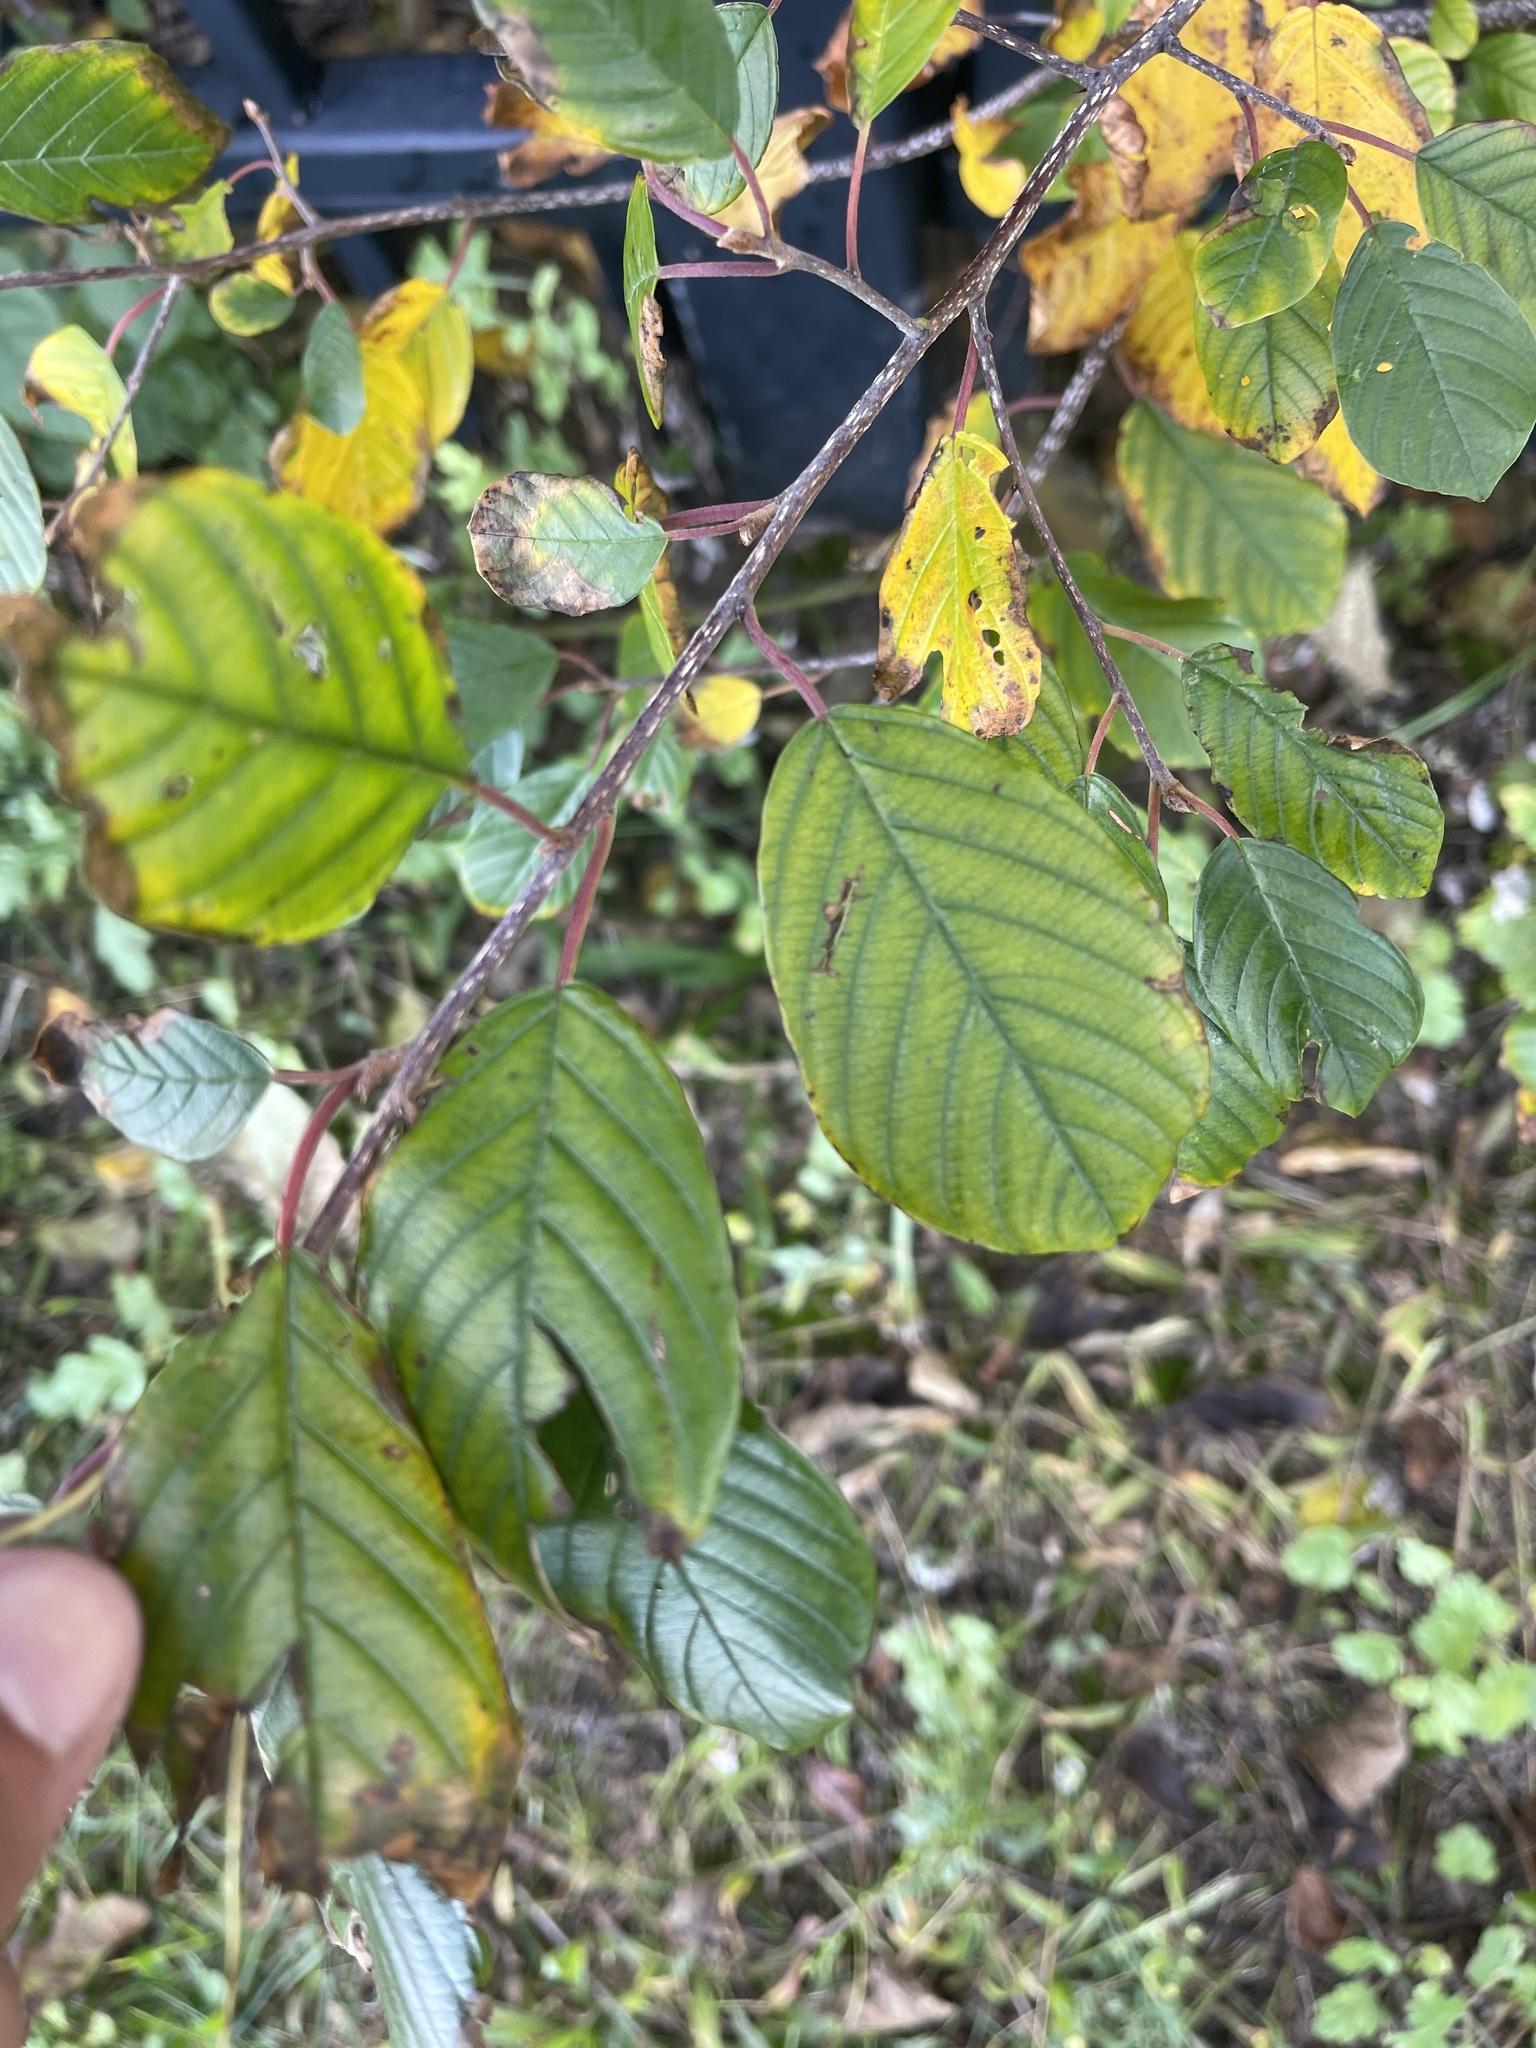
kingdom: Plantae
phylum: Tracheophyta
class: Magnoliopsida
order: Rosales
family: Rhamnaceae
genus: Frangula
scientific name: Frangula alnus
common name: Alder buckthorn
